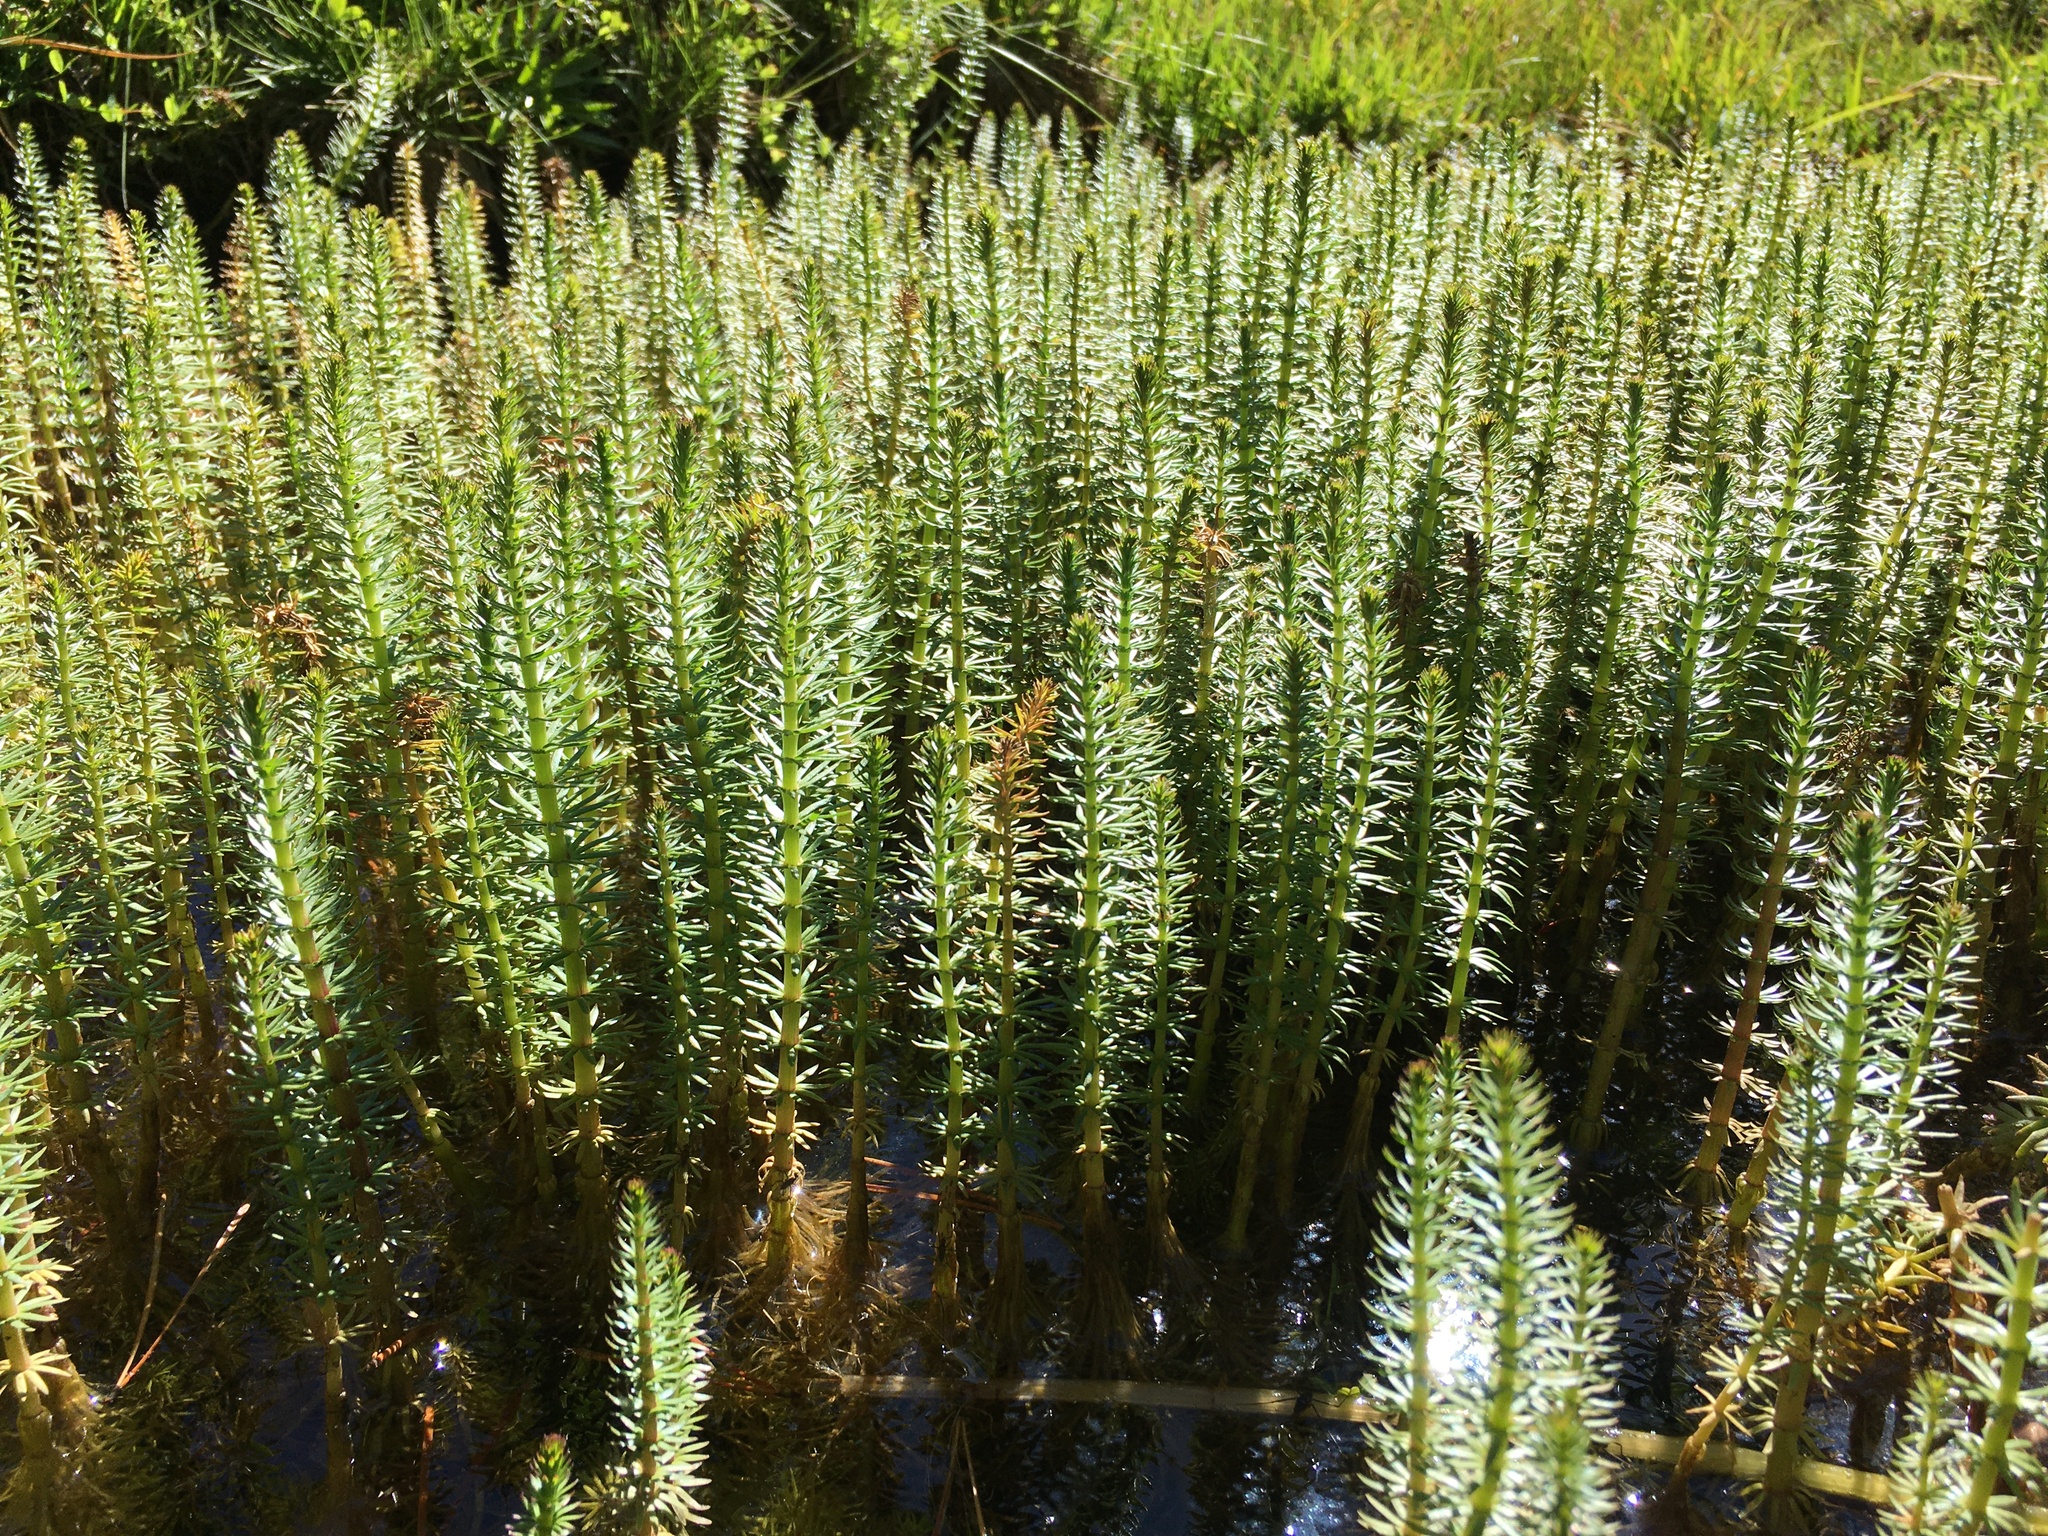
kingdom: Plantae
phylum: Tracheophyta
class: Magnoliopsida
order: Lamiales
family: Plantaginaceae
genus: Hippuris
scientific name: Hippuris vulgaris
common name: Mare's-tail
